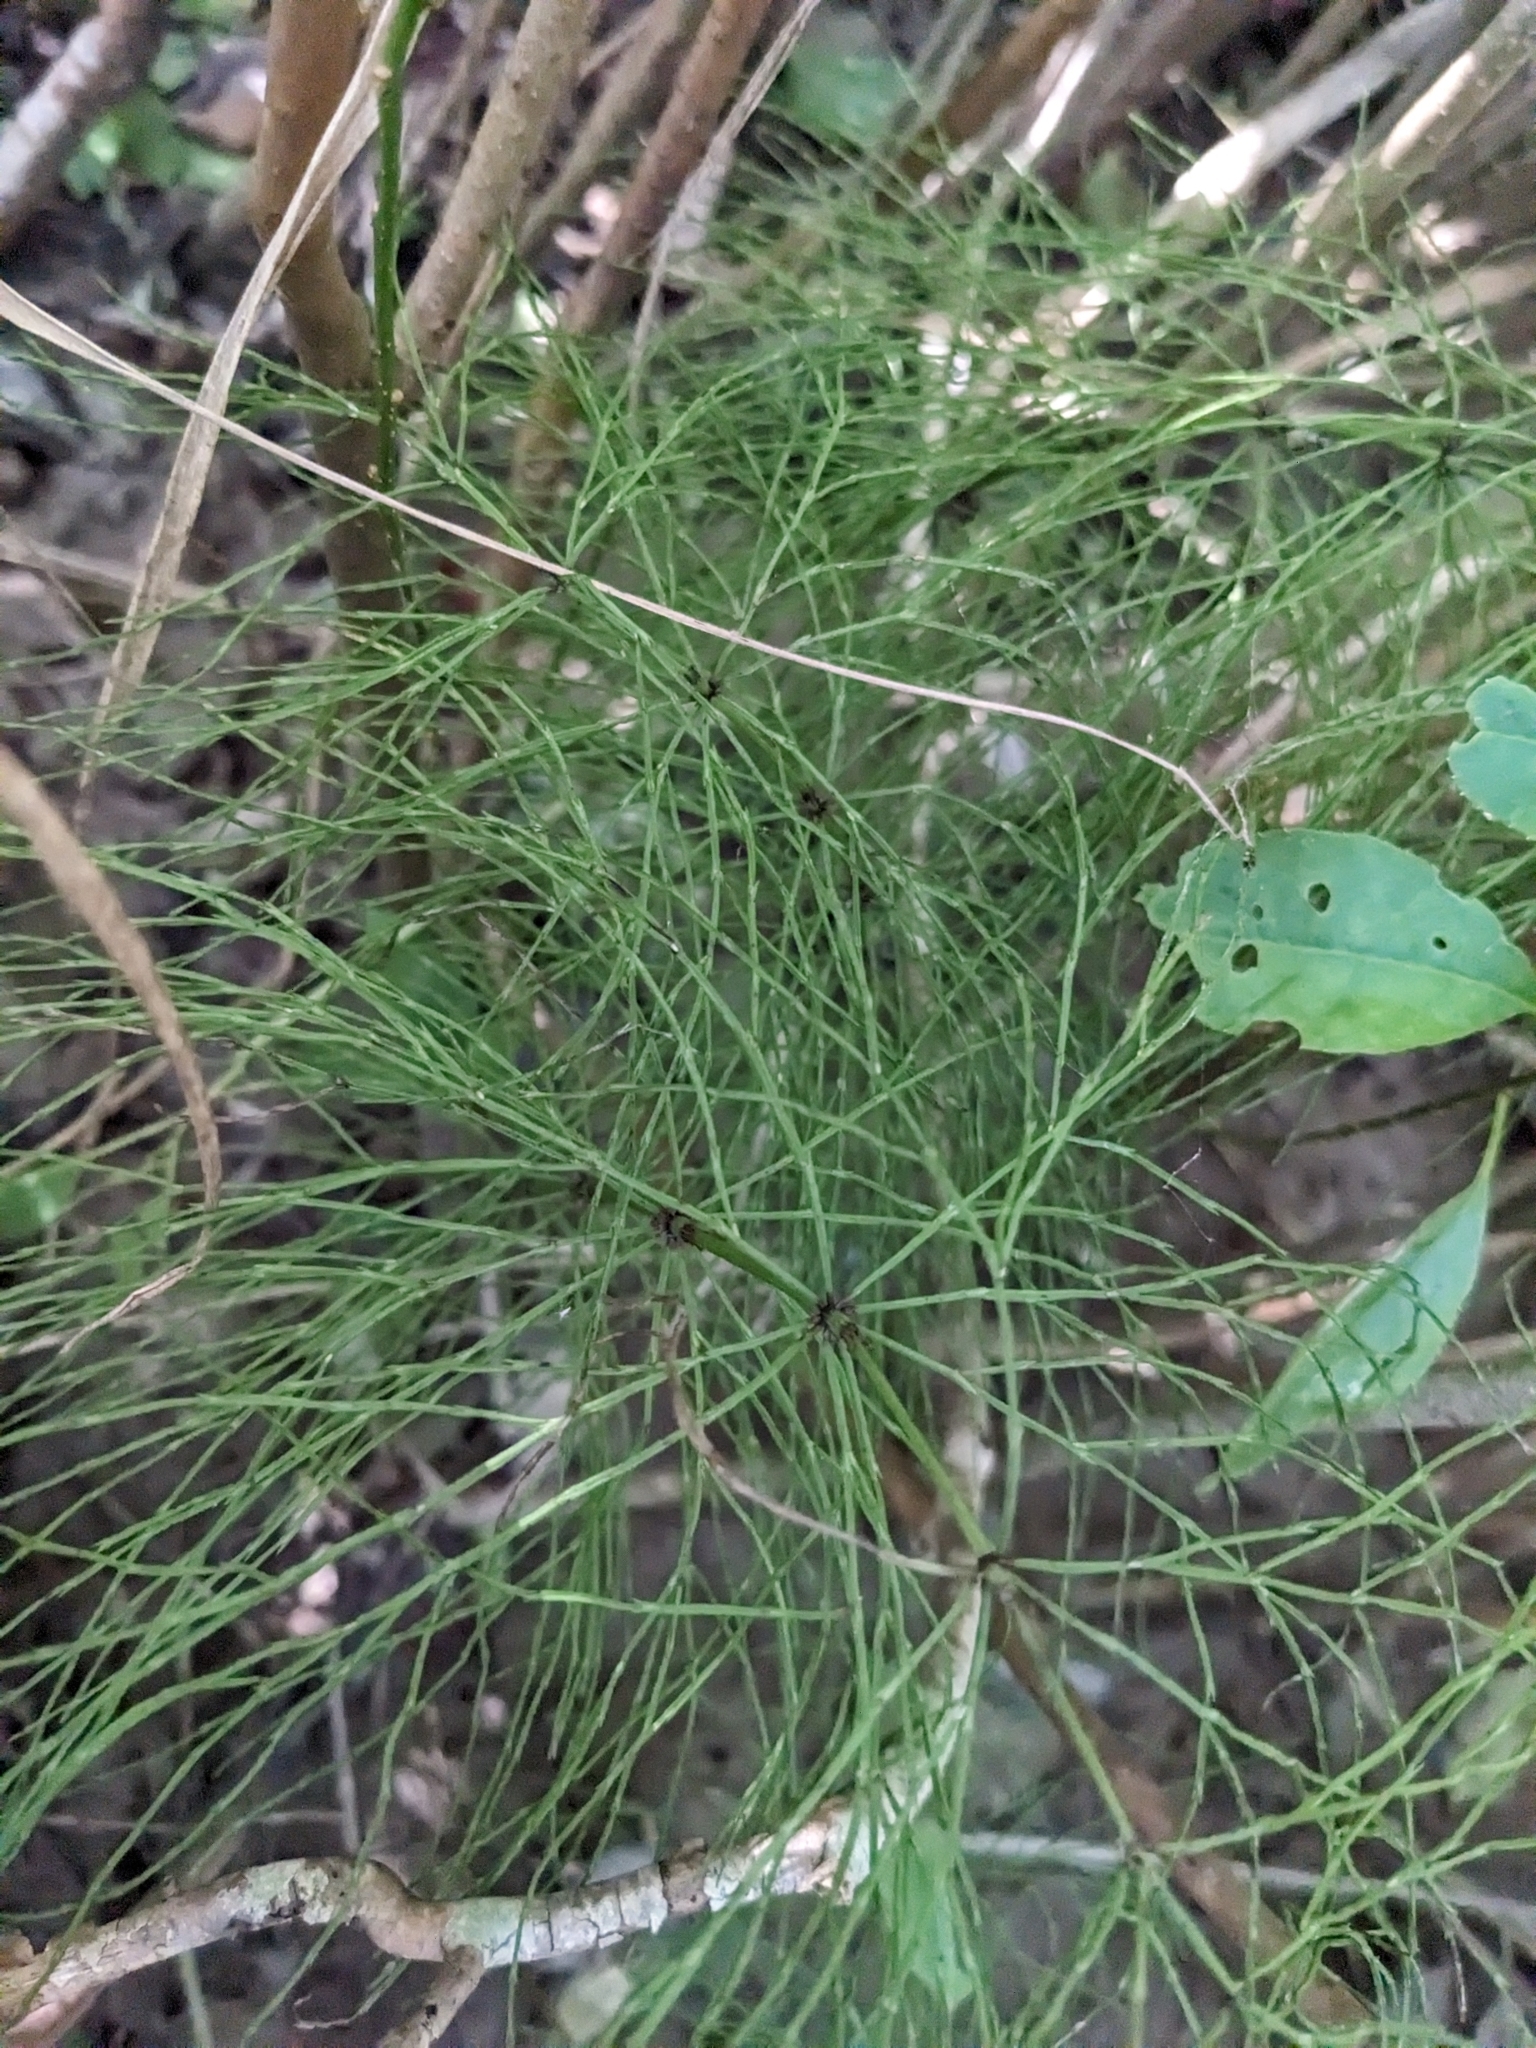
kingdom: Plantae
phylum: Tracheophyta
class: Polypodiopsida
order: Equisetales
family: Equisetaceae
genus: Equisetum
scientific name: Equisetum sylvaticum
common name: Wood horsetail
